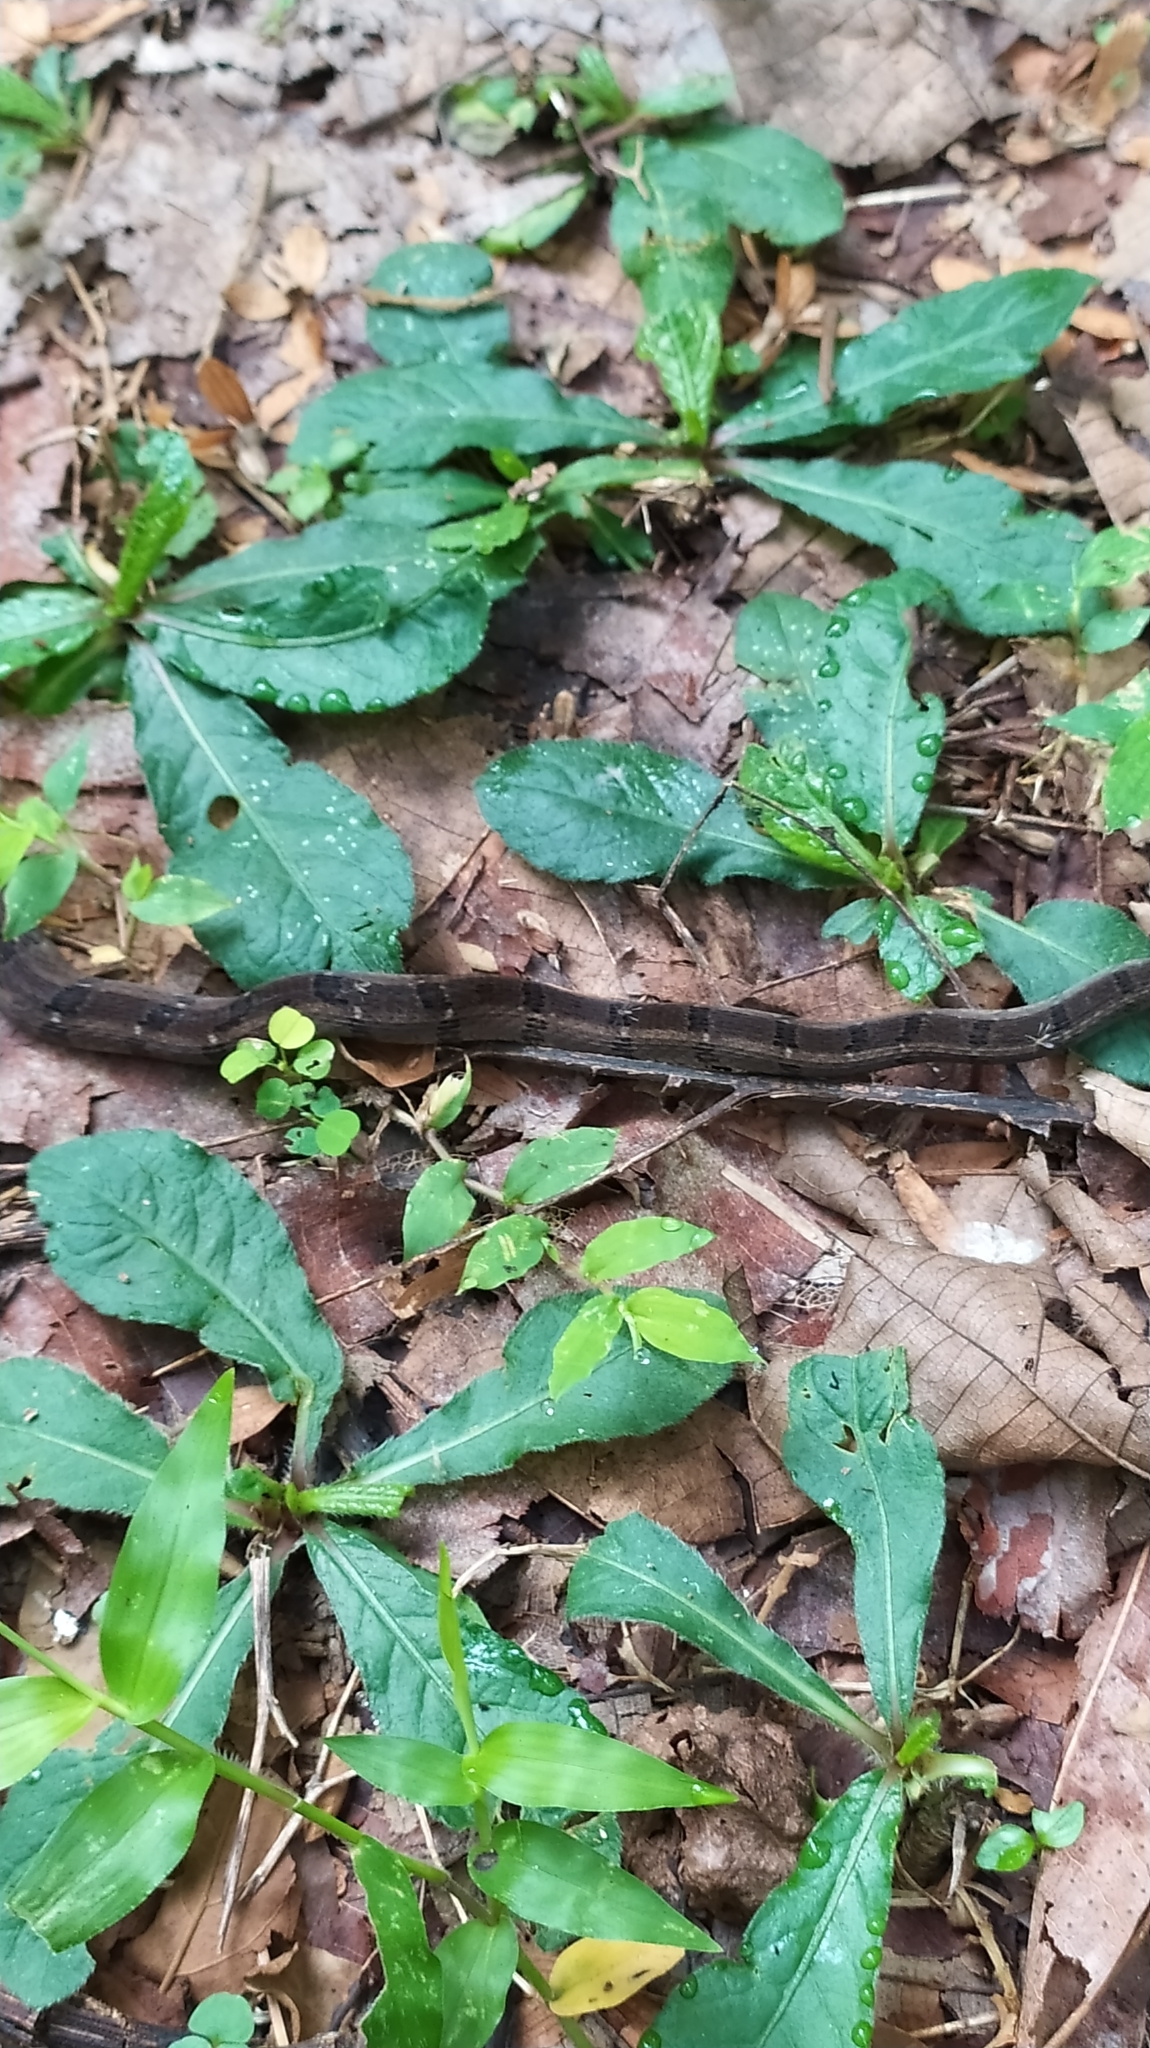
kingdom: Animalia
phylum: Chordata
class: Squamata
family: Colubridae
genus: Hebius
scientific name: Hebius monticola
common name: Wynad keelback
